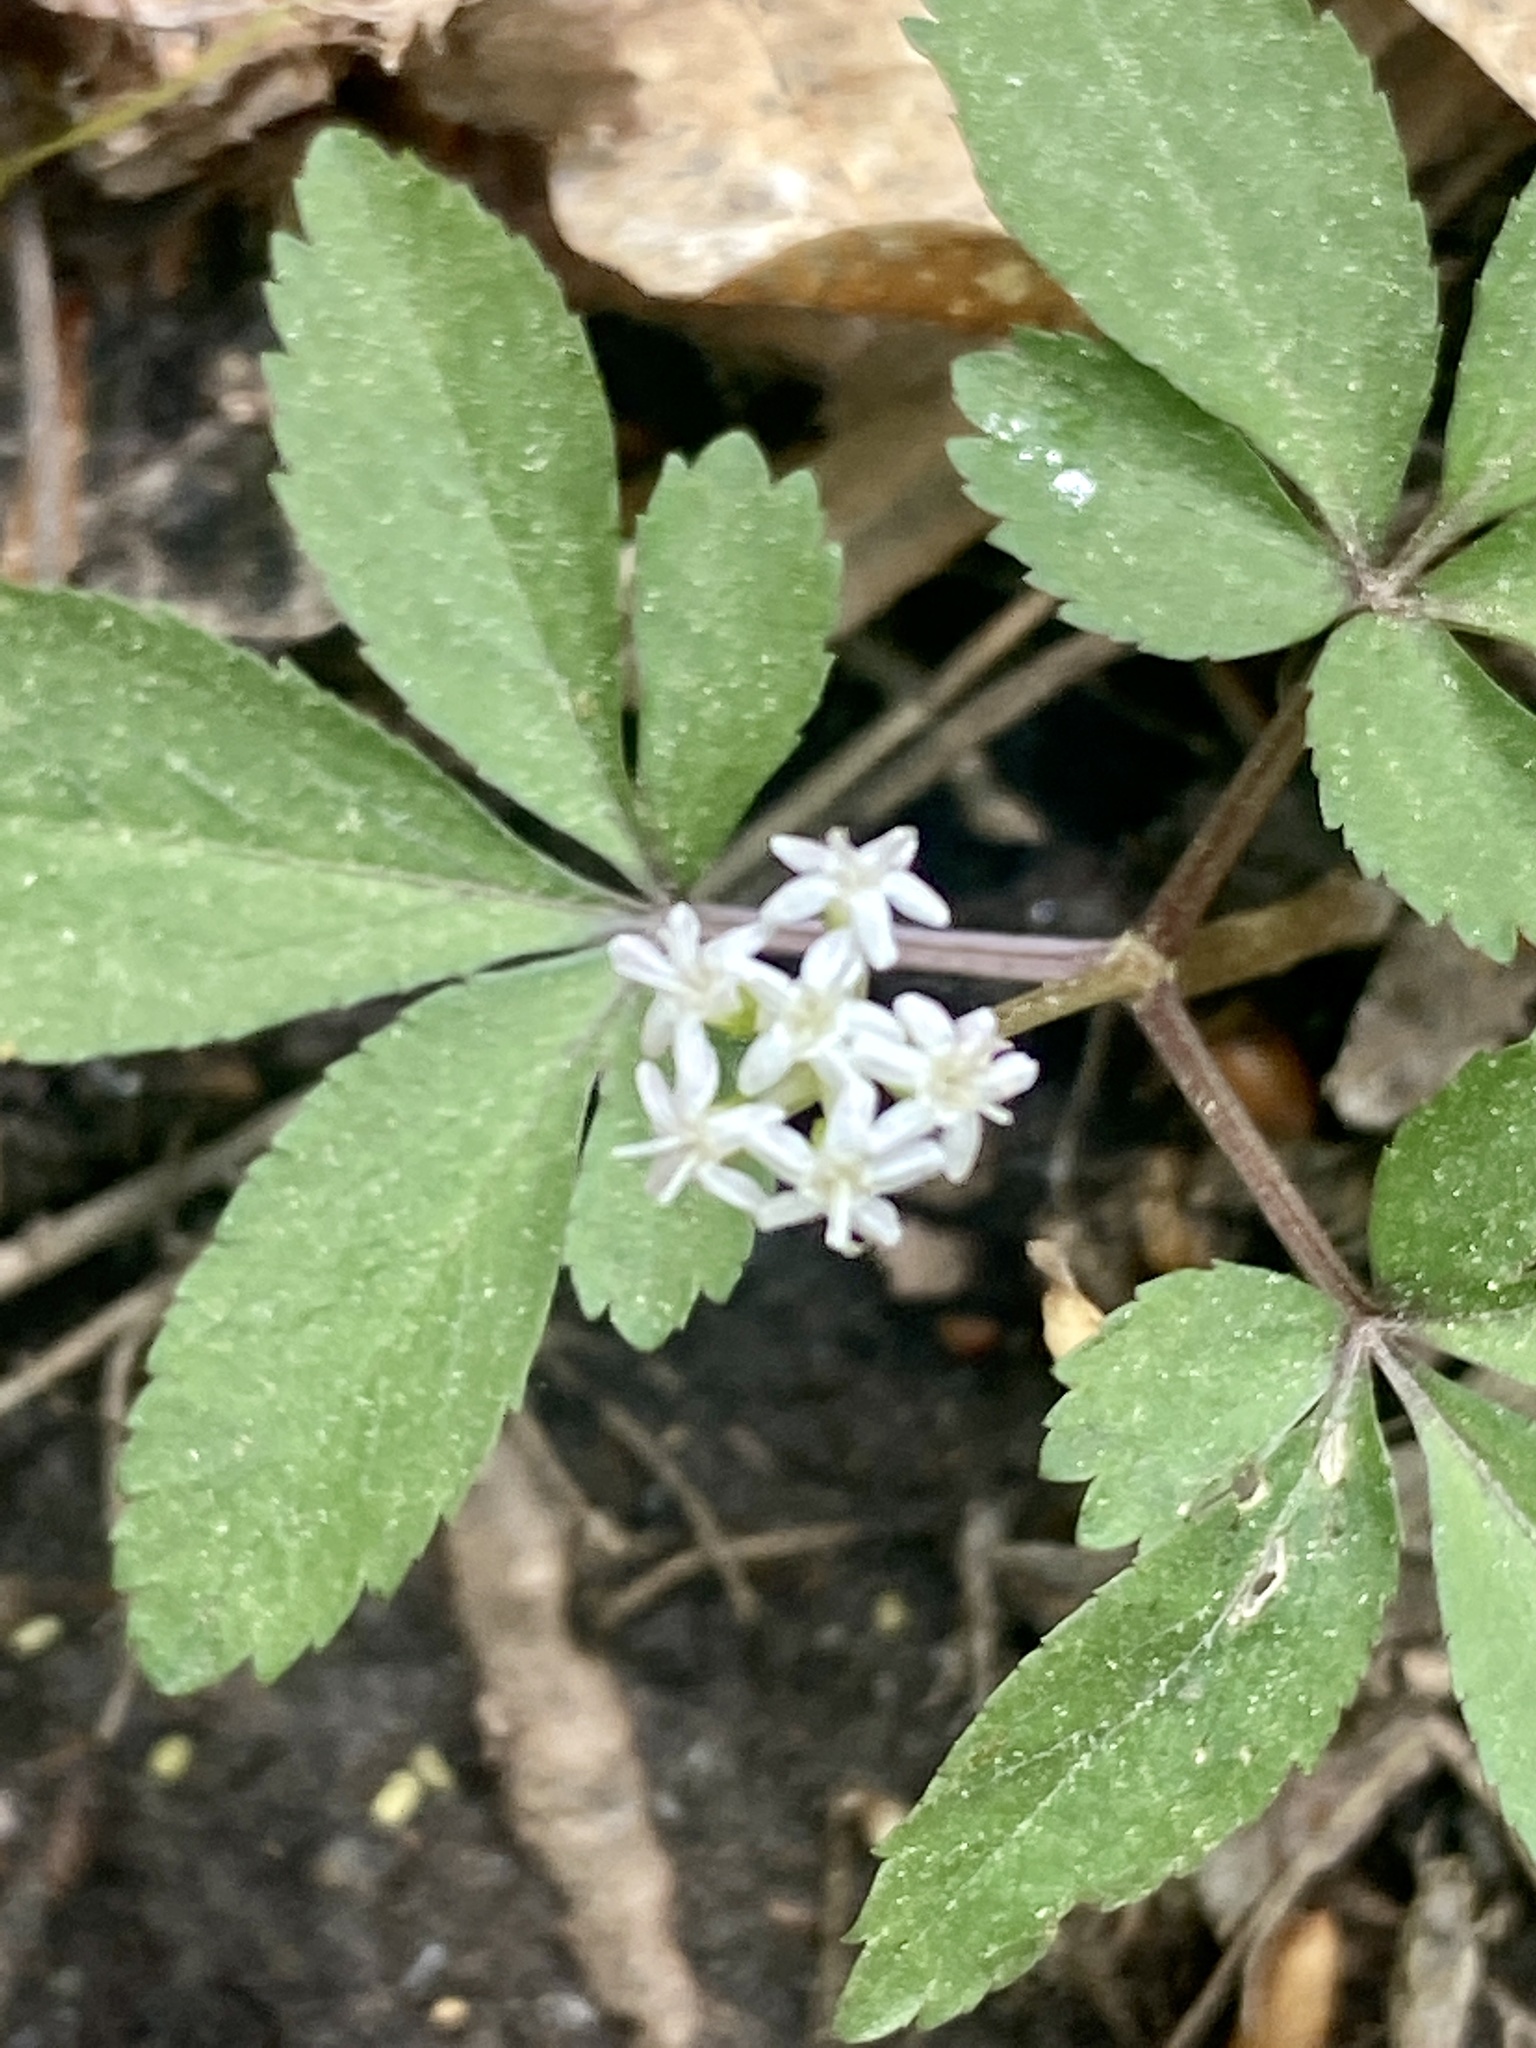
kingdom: Plantae
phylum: Tracheophyta
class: Magnoliopsida
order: Apiales
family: Araliaceae
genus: Panax
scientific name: Panax trifolius
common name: Dwarf ginseng
